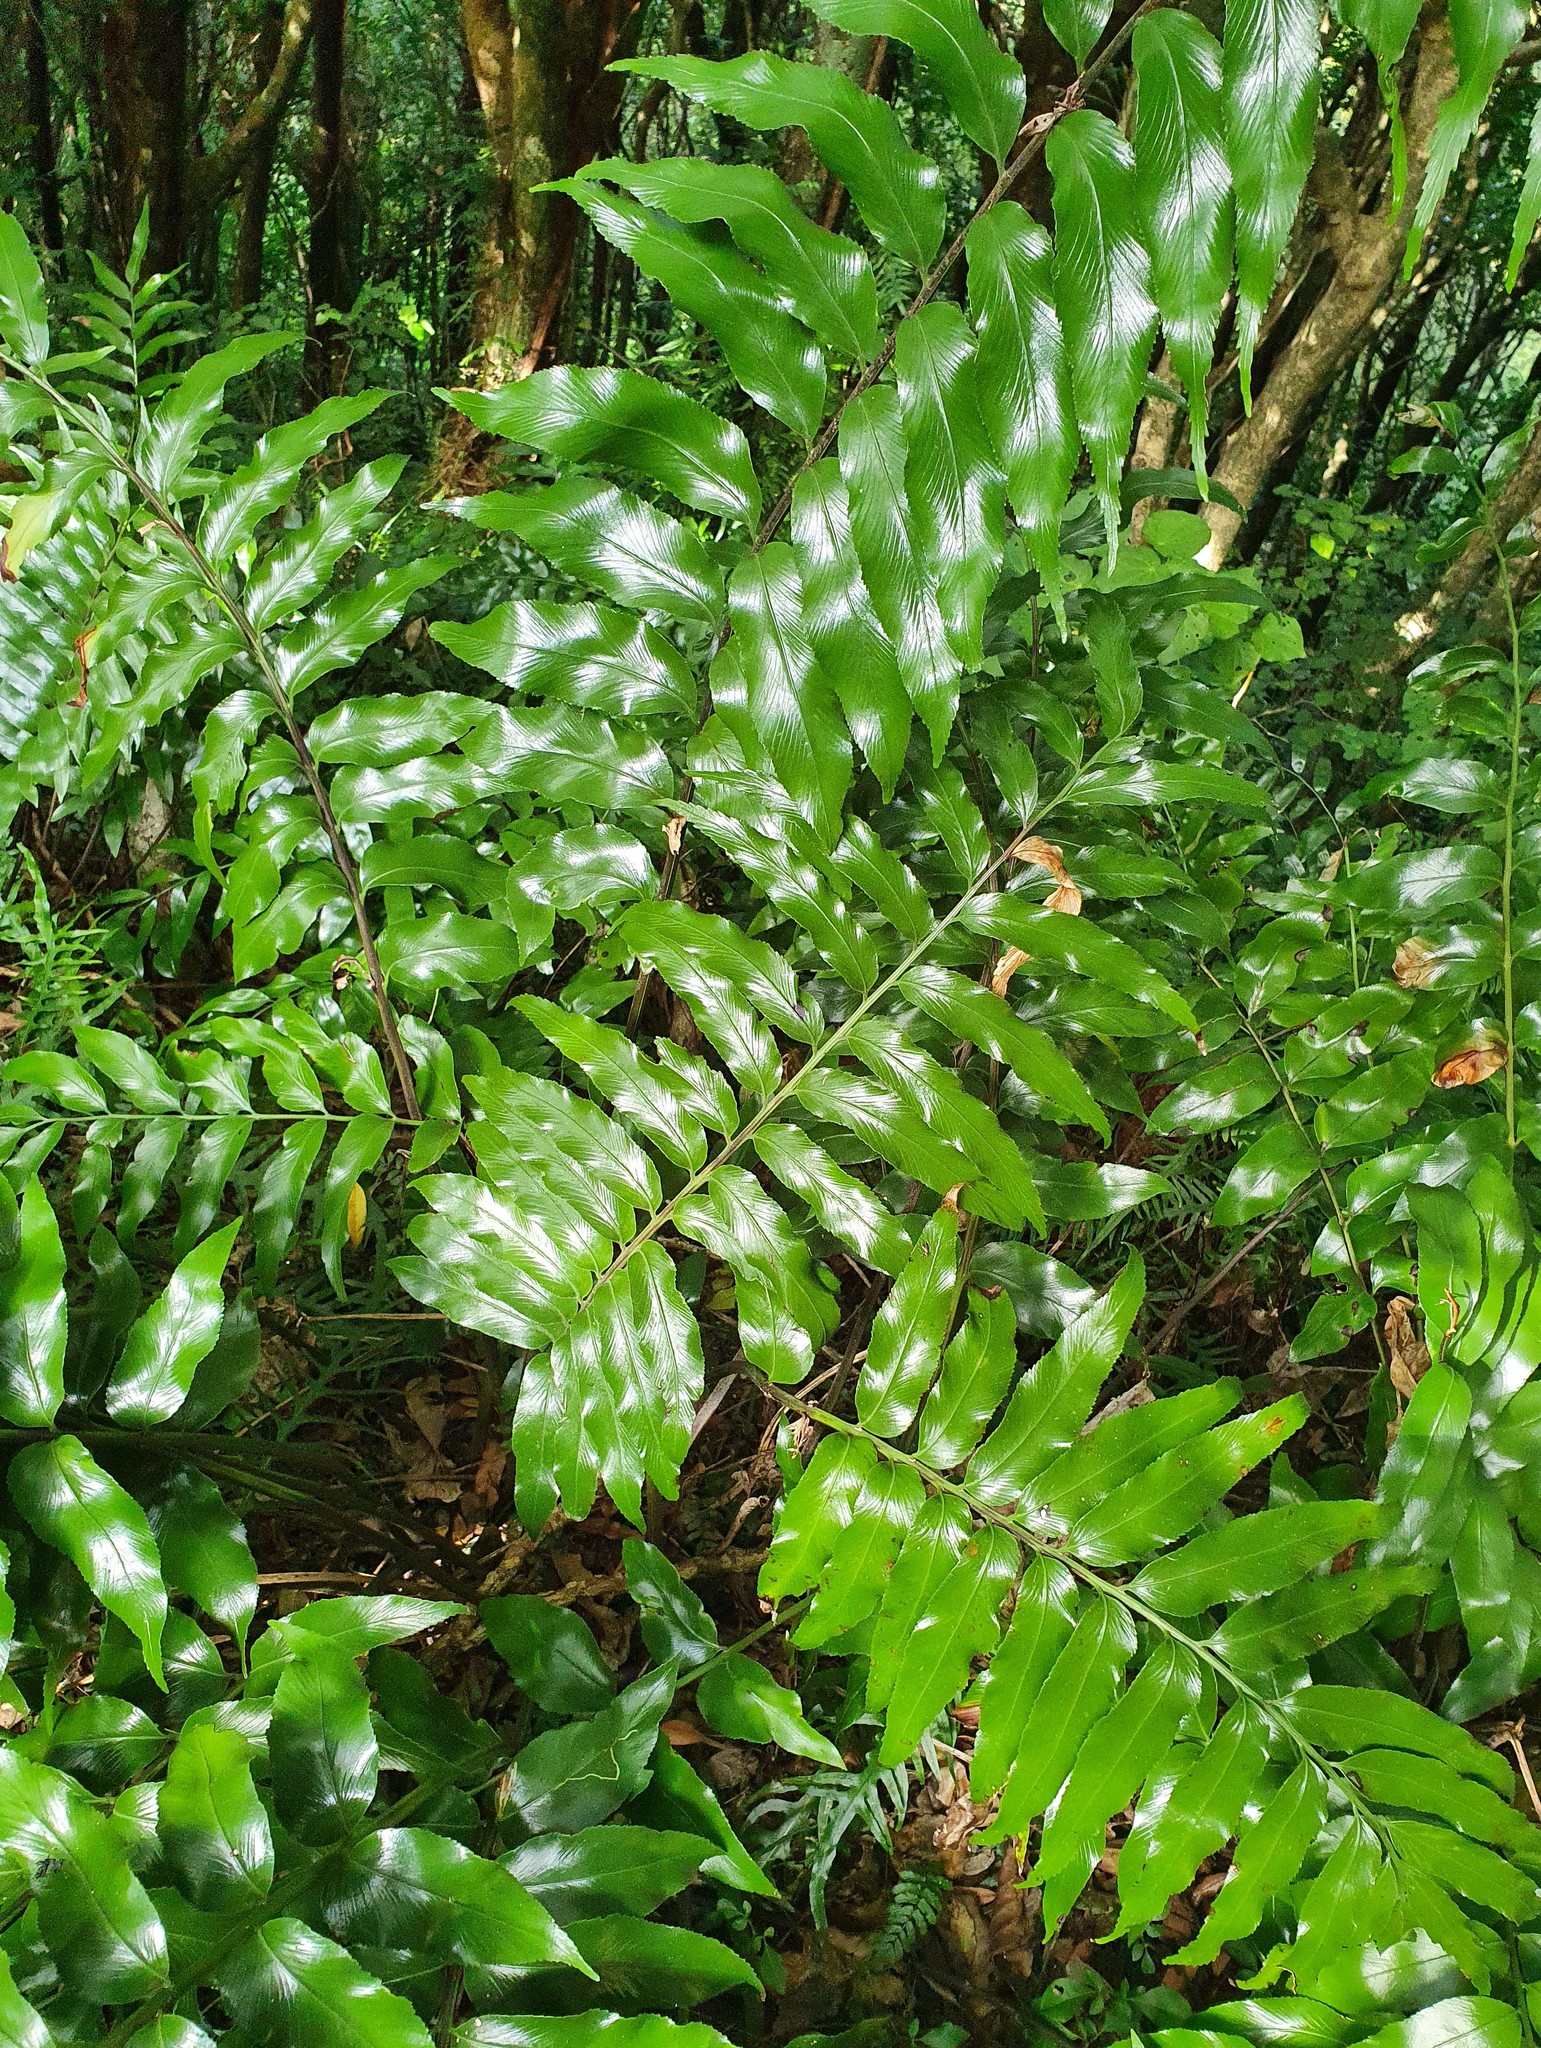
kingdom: Plantae
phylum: Tracheophyta
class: Polypodiopsida
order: Polypodiales
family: Aspleniaceae
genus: Asplenium
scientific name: Asplenium oblongifolium
